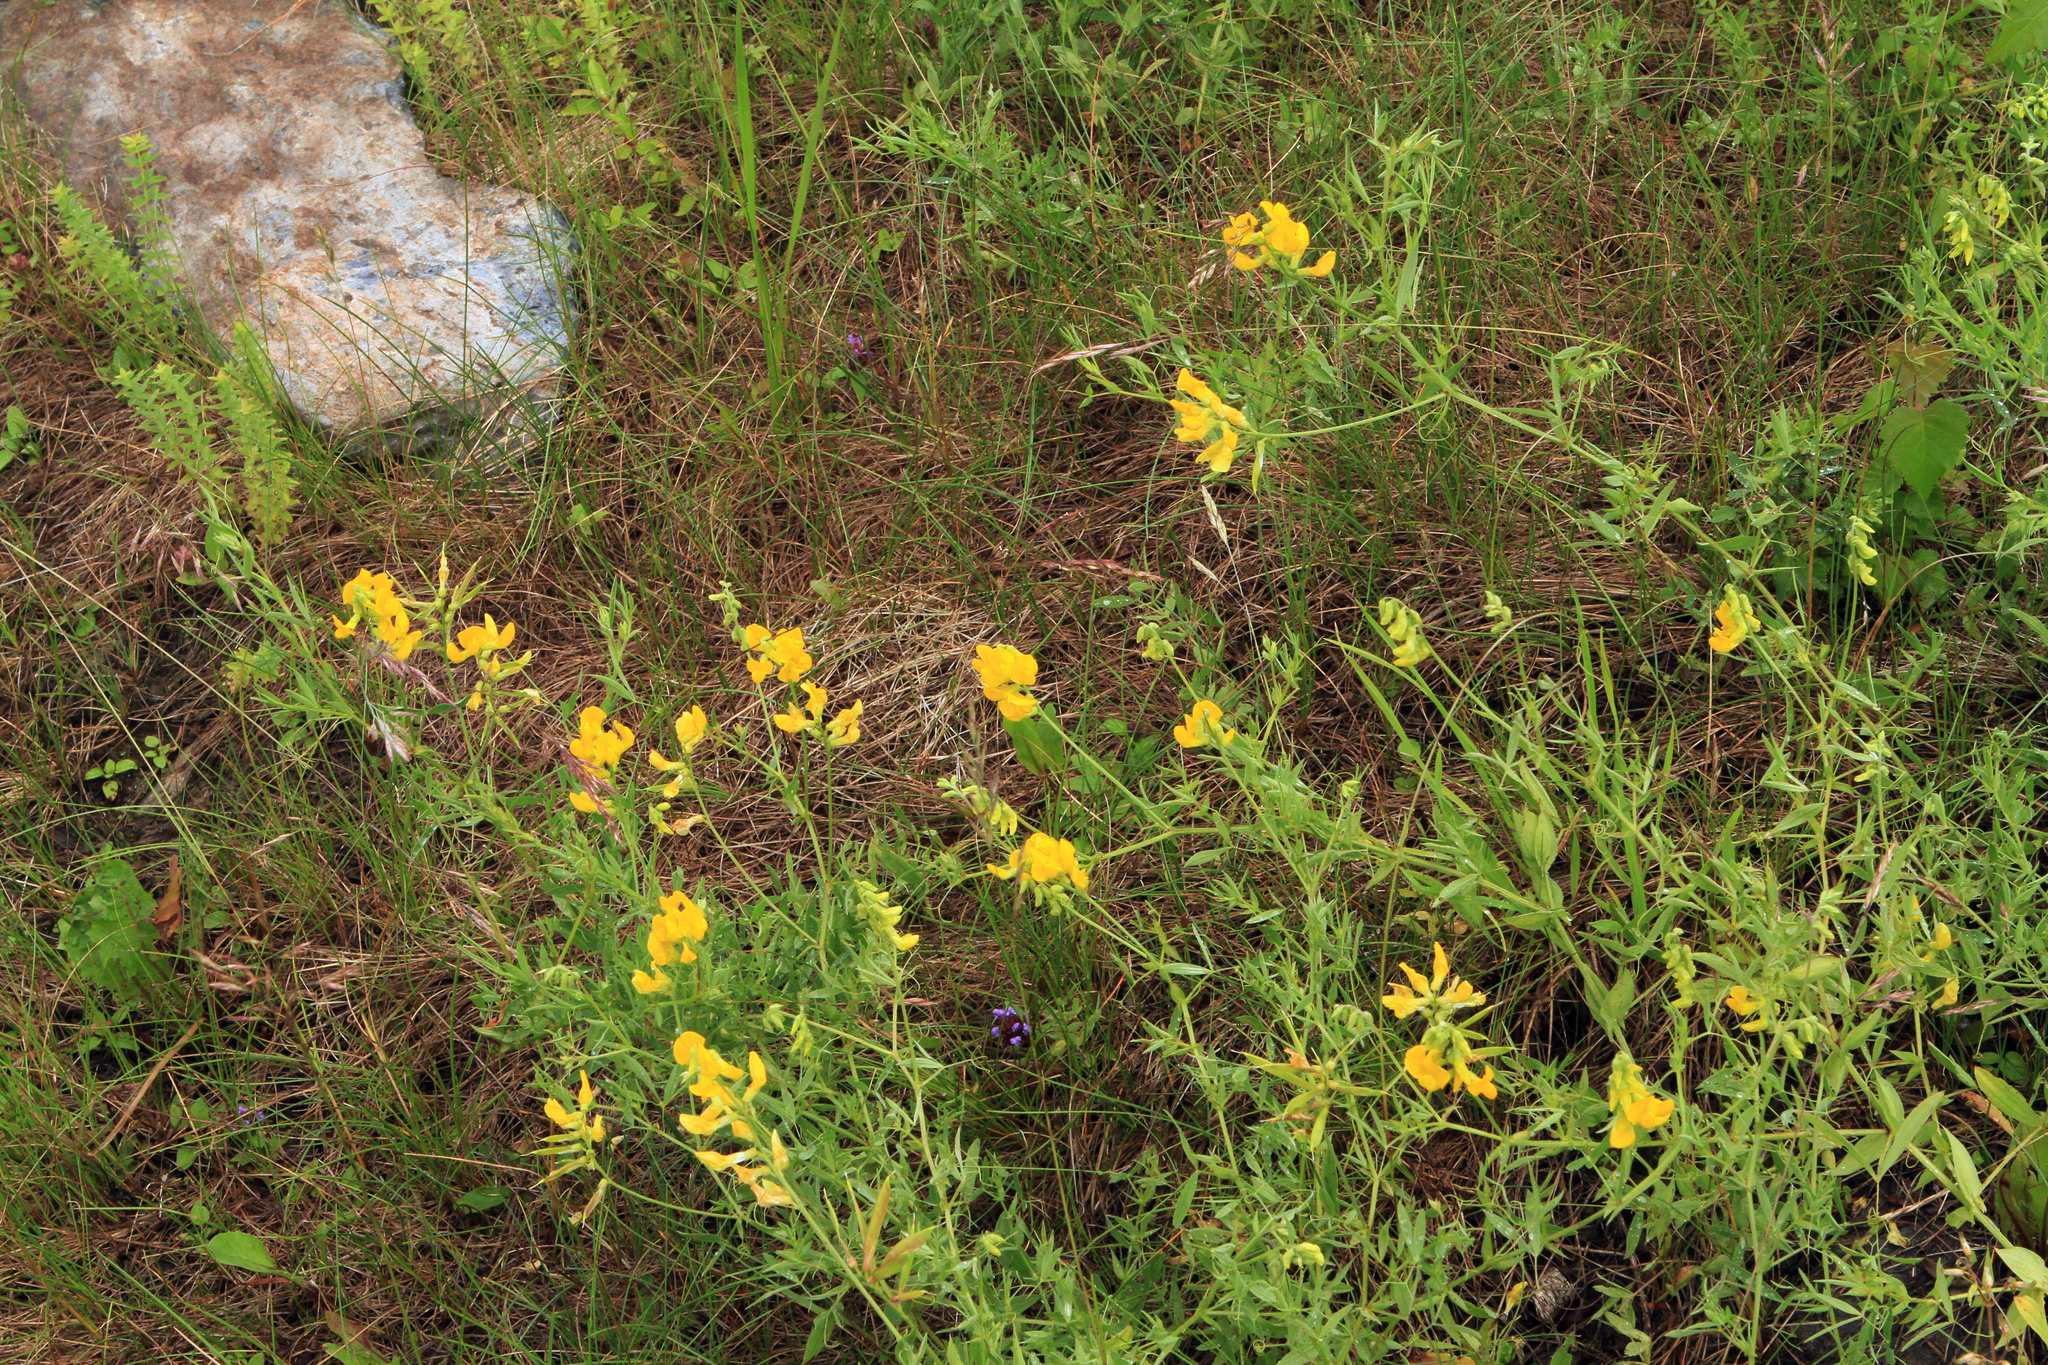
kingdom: Plantae
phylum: Tracheophyta
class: Magnoliopsida
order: Fabales
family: Fabaceae
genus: Lathyrus
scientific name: Lathyrus pratensis
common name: Meadow vetchling
